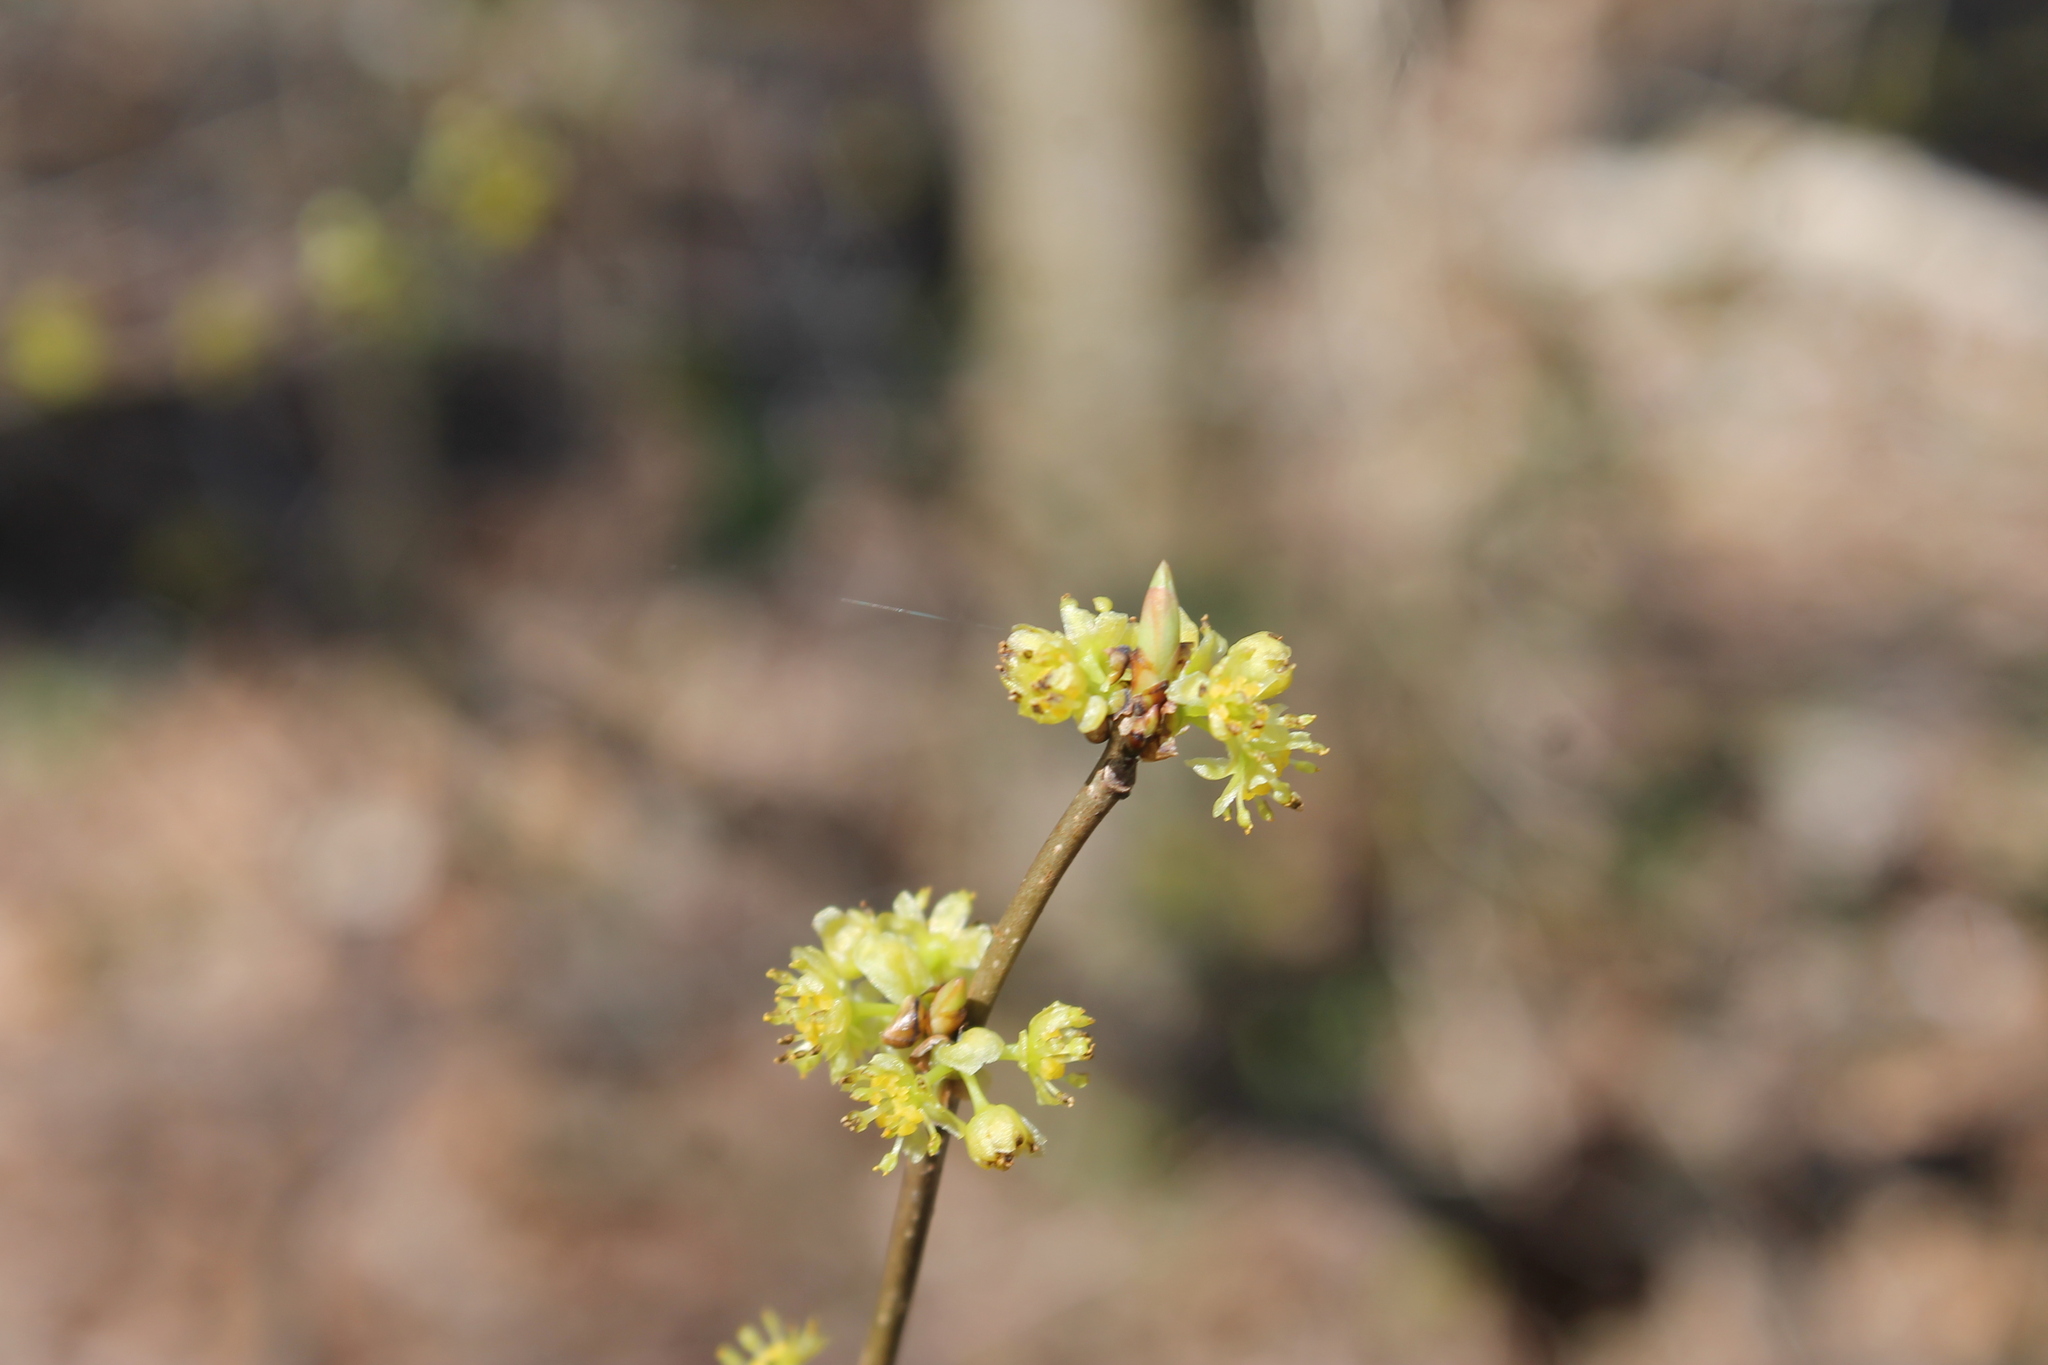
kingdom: Plantae
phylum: Tracheophyta
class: Magnoliopsida
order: Laurales
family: Lauraceae
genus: Lindera
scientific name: Lindera benzoin
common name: Spicebush
